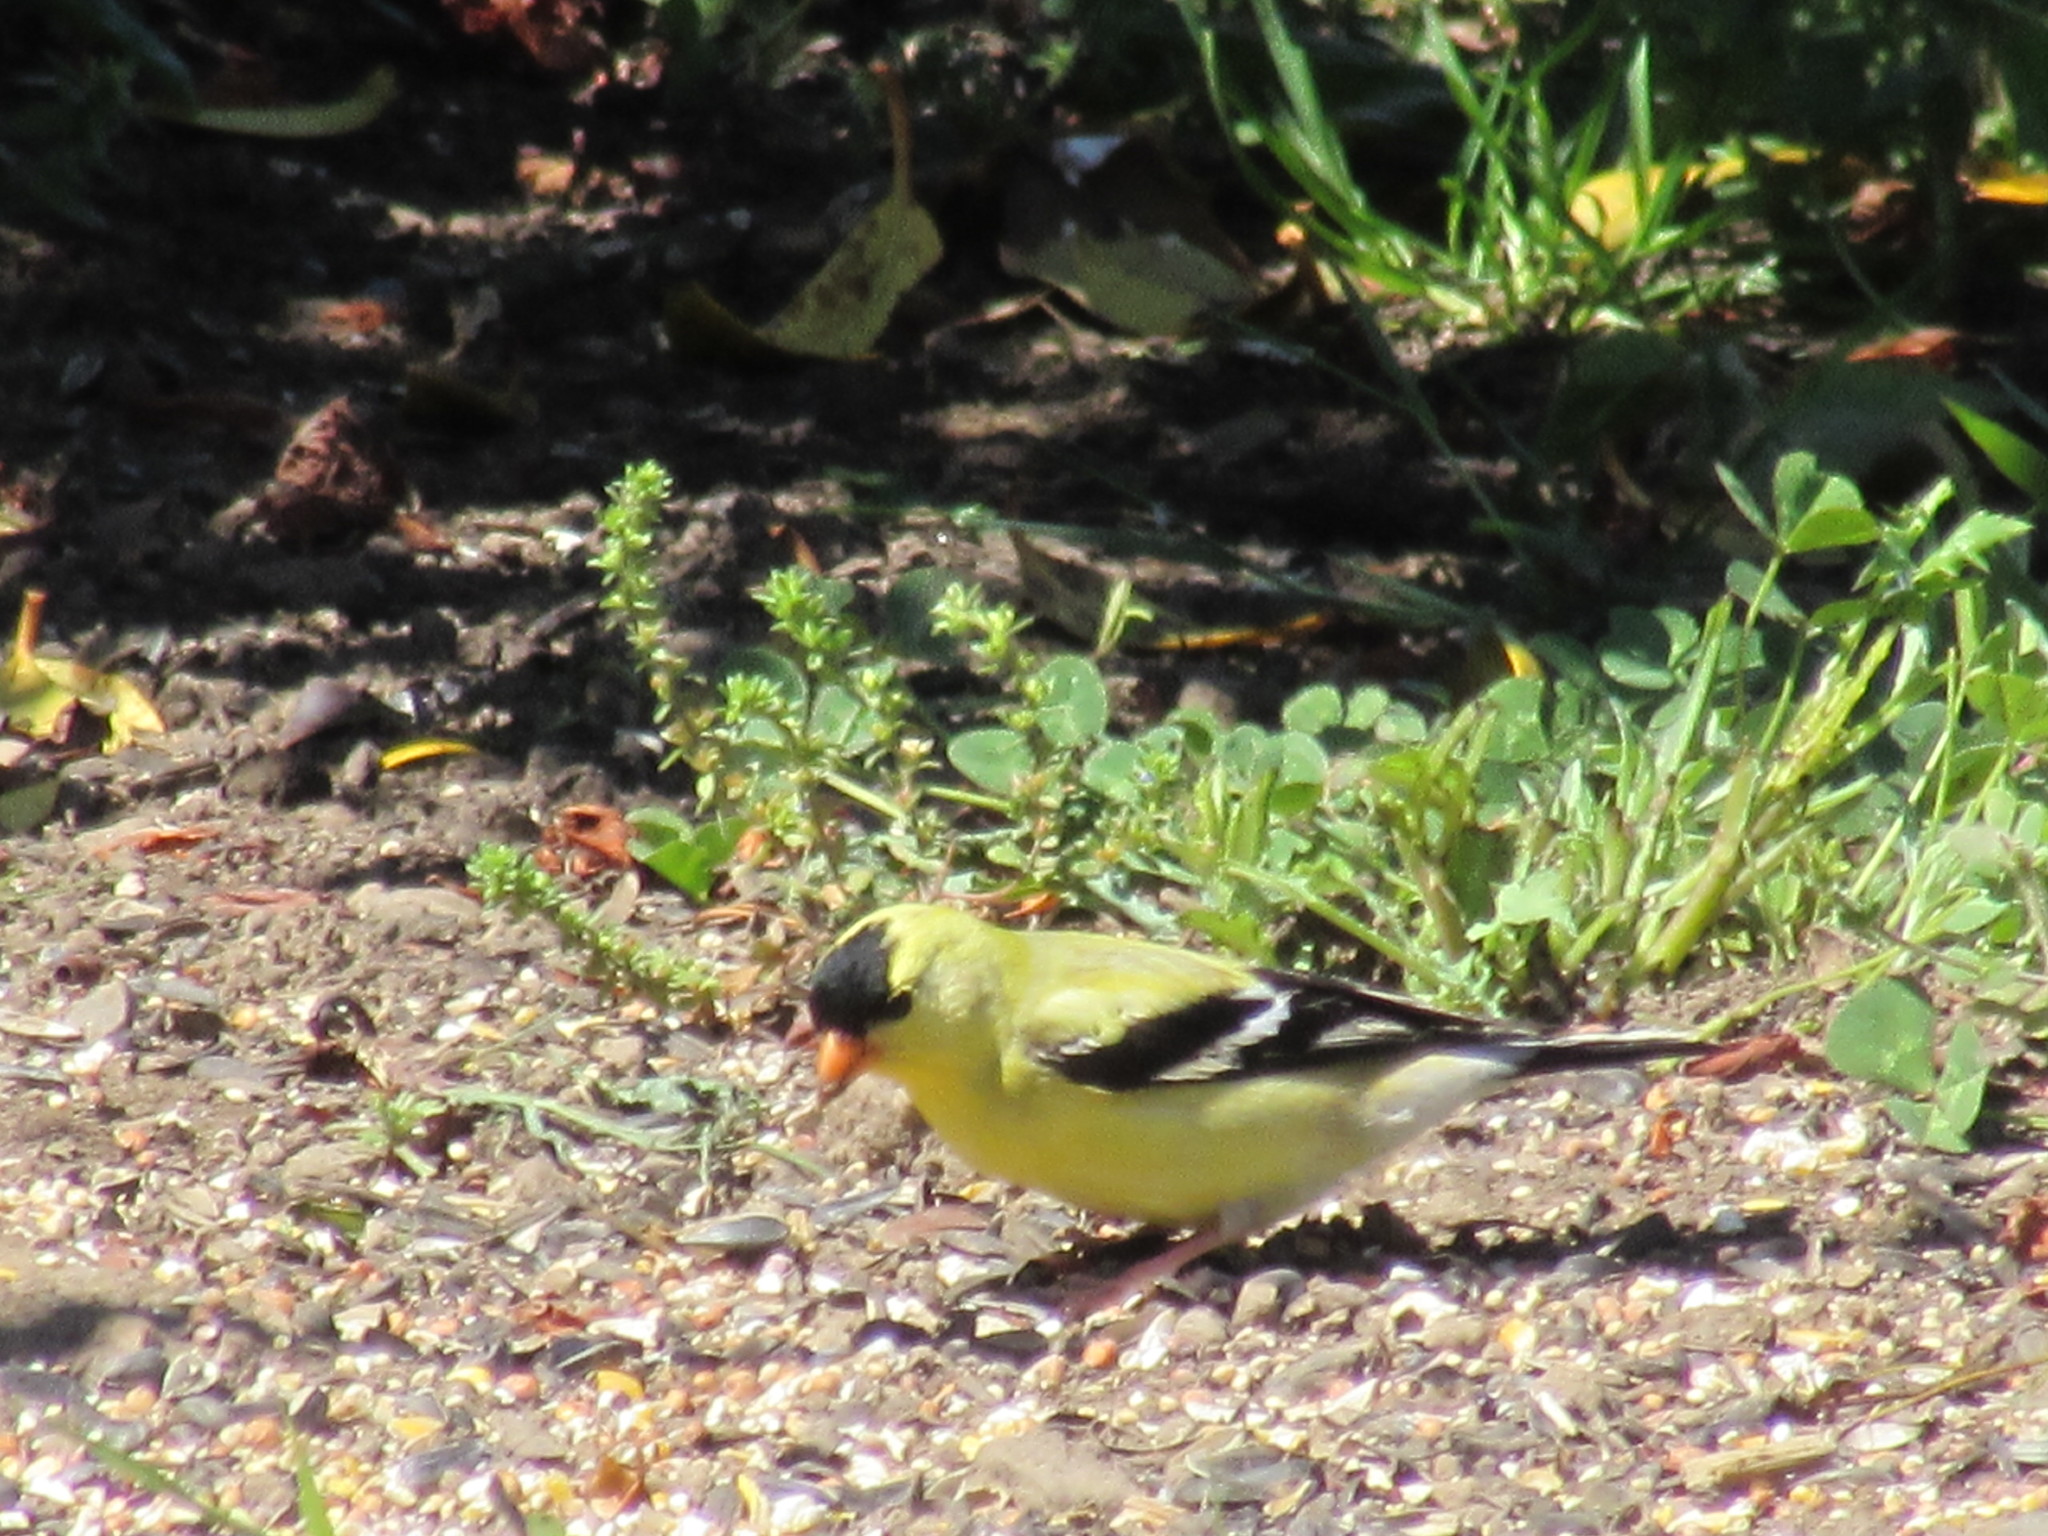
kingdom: Animalia
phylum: Chordata
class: Aves
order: Passeriformes
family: Fringillidae
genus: Spinus
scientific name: Spinus tristis
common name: American goldfinch
